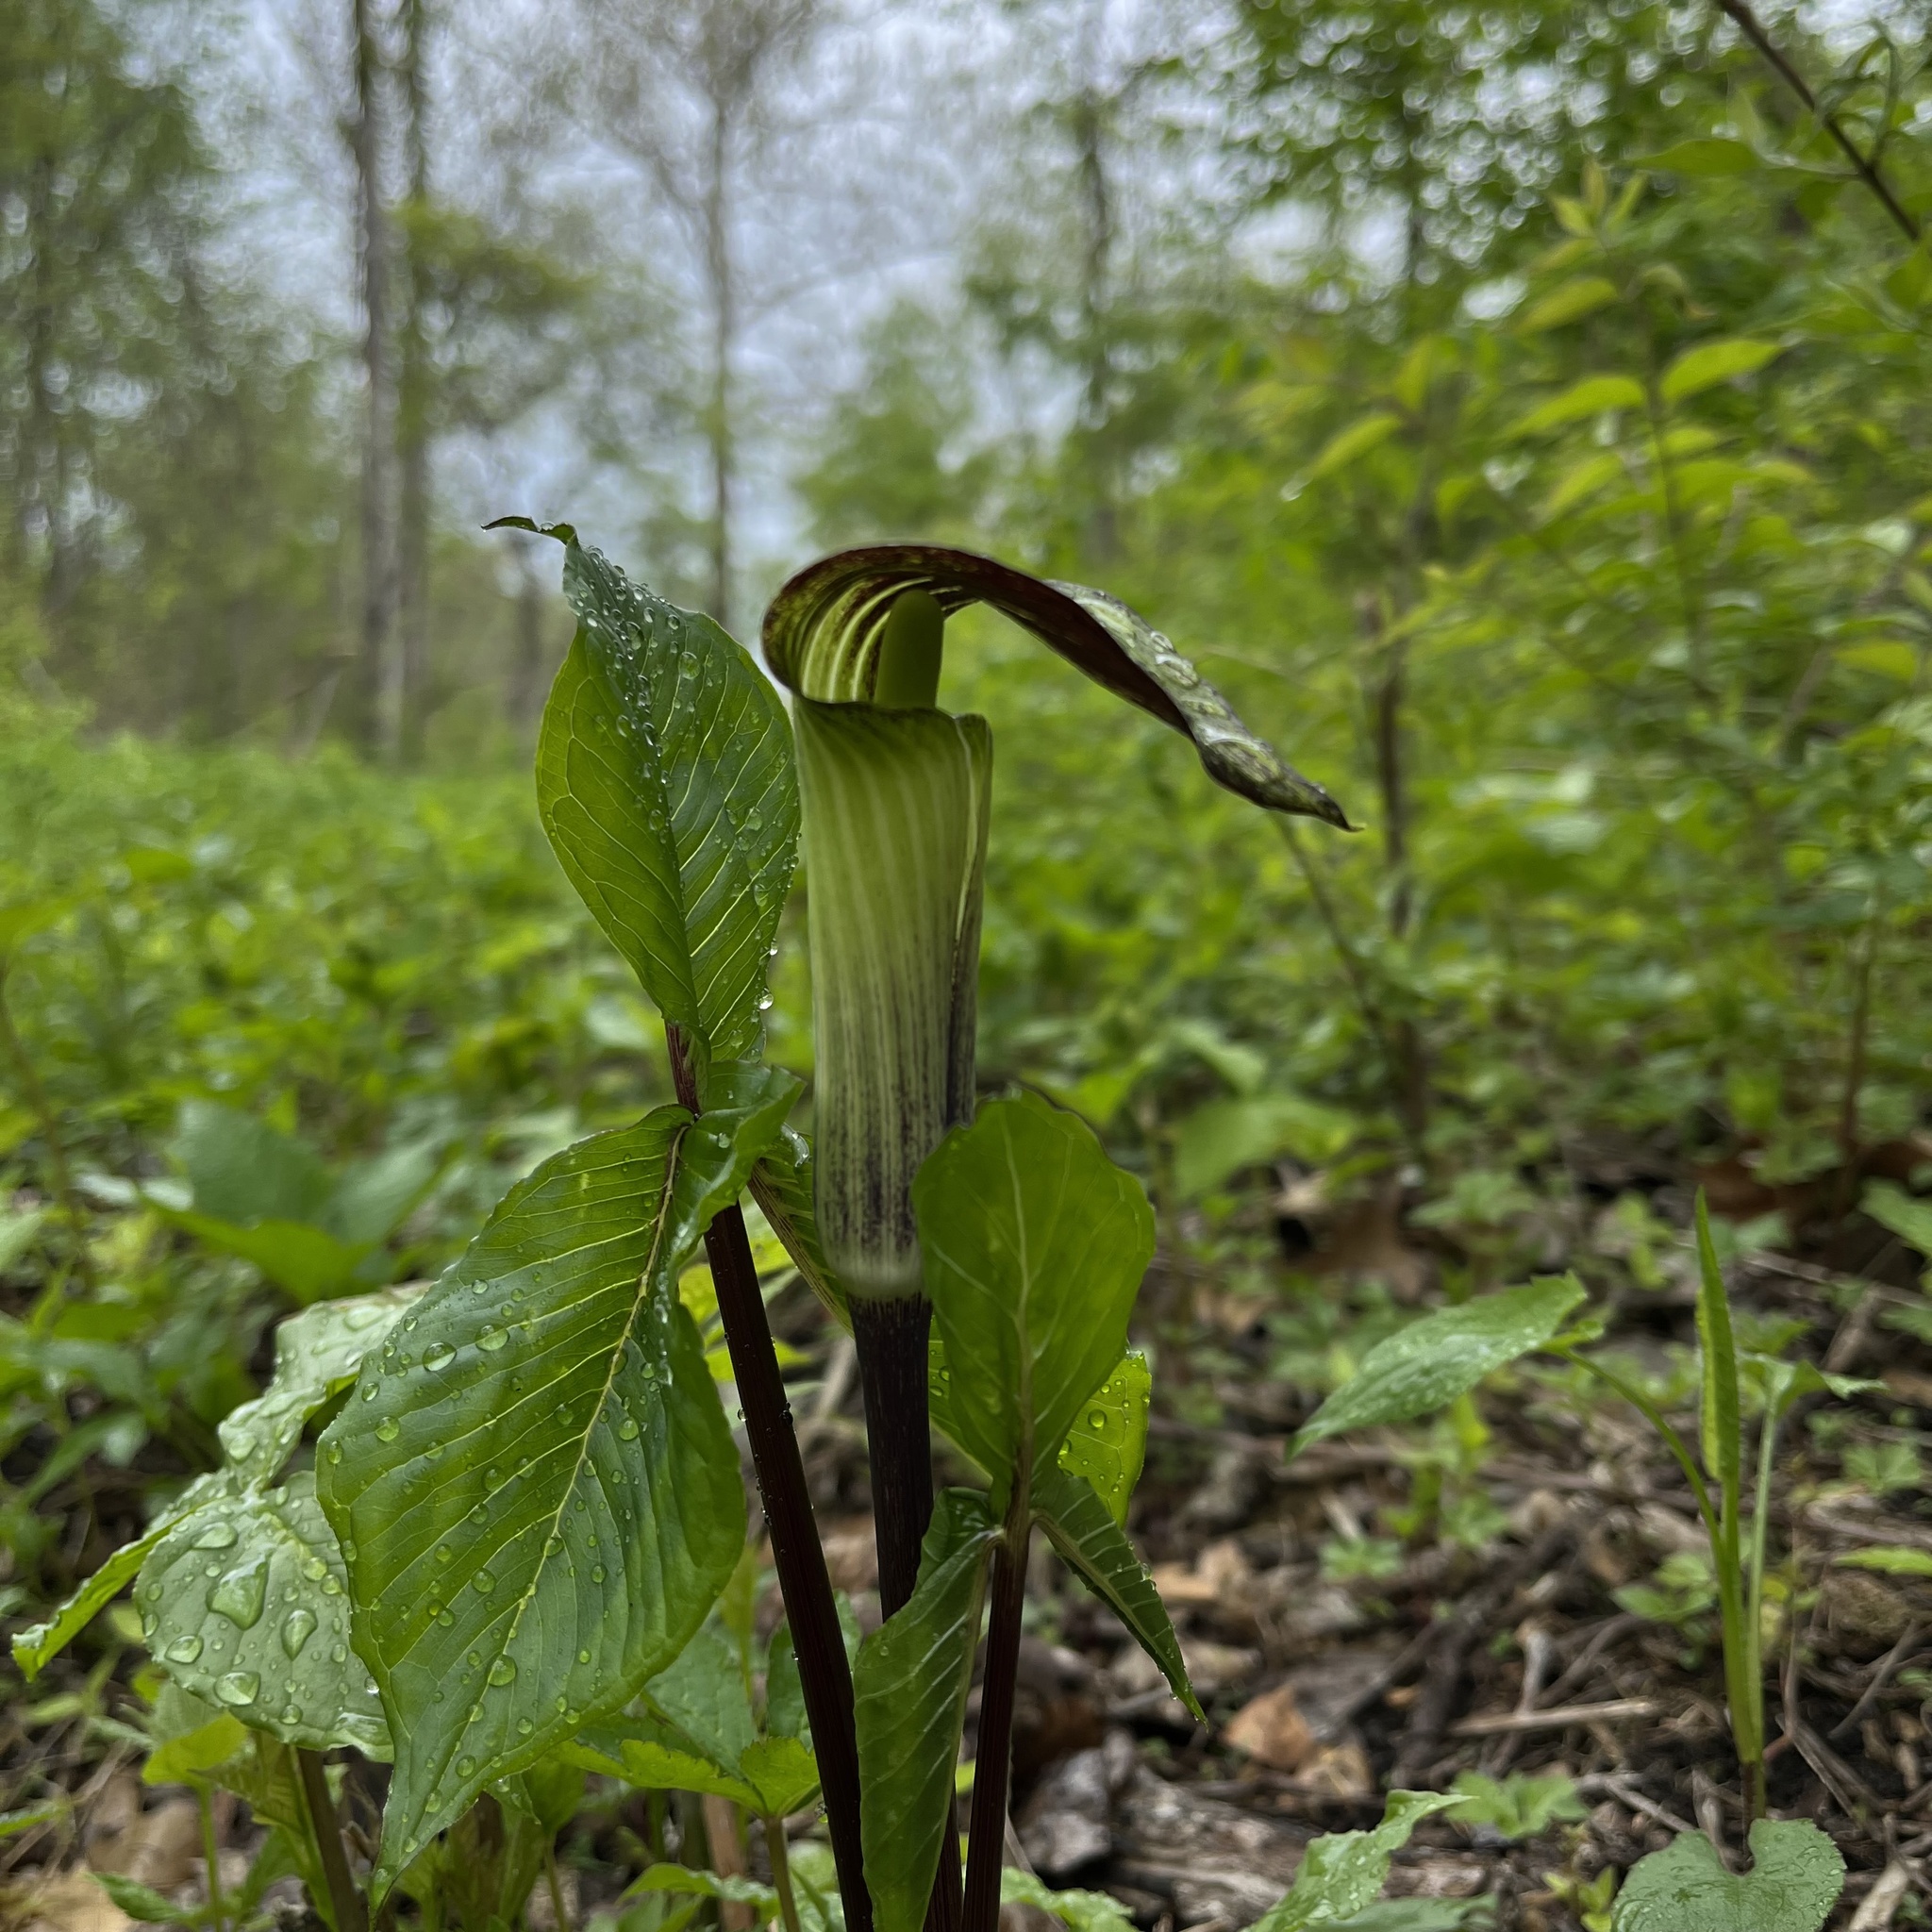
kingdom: Plantae
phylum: Tracheophyta
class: Liliopsida
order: Alismatales
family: Araceae
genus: Arisaema
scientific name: Arisaema triphyllum
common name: Jack-in-the-pulpit
